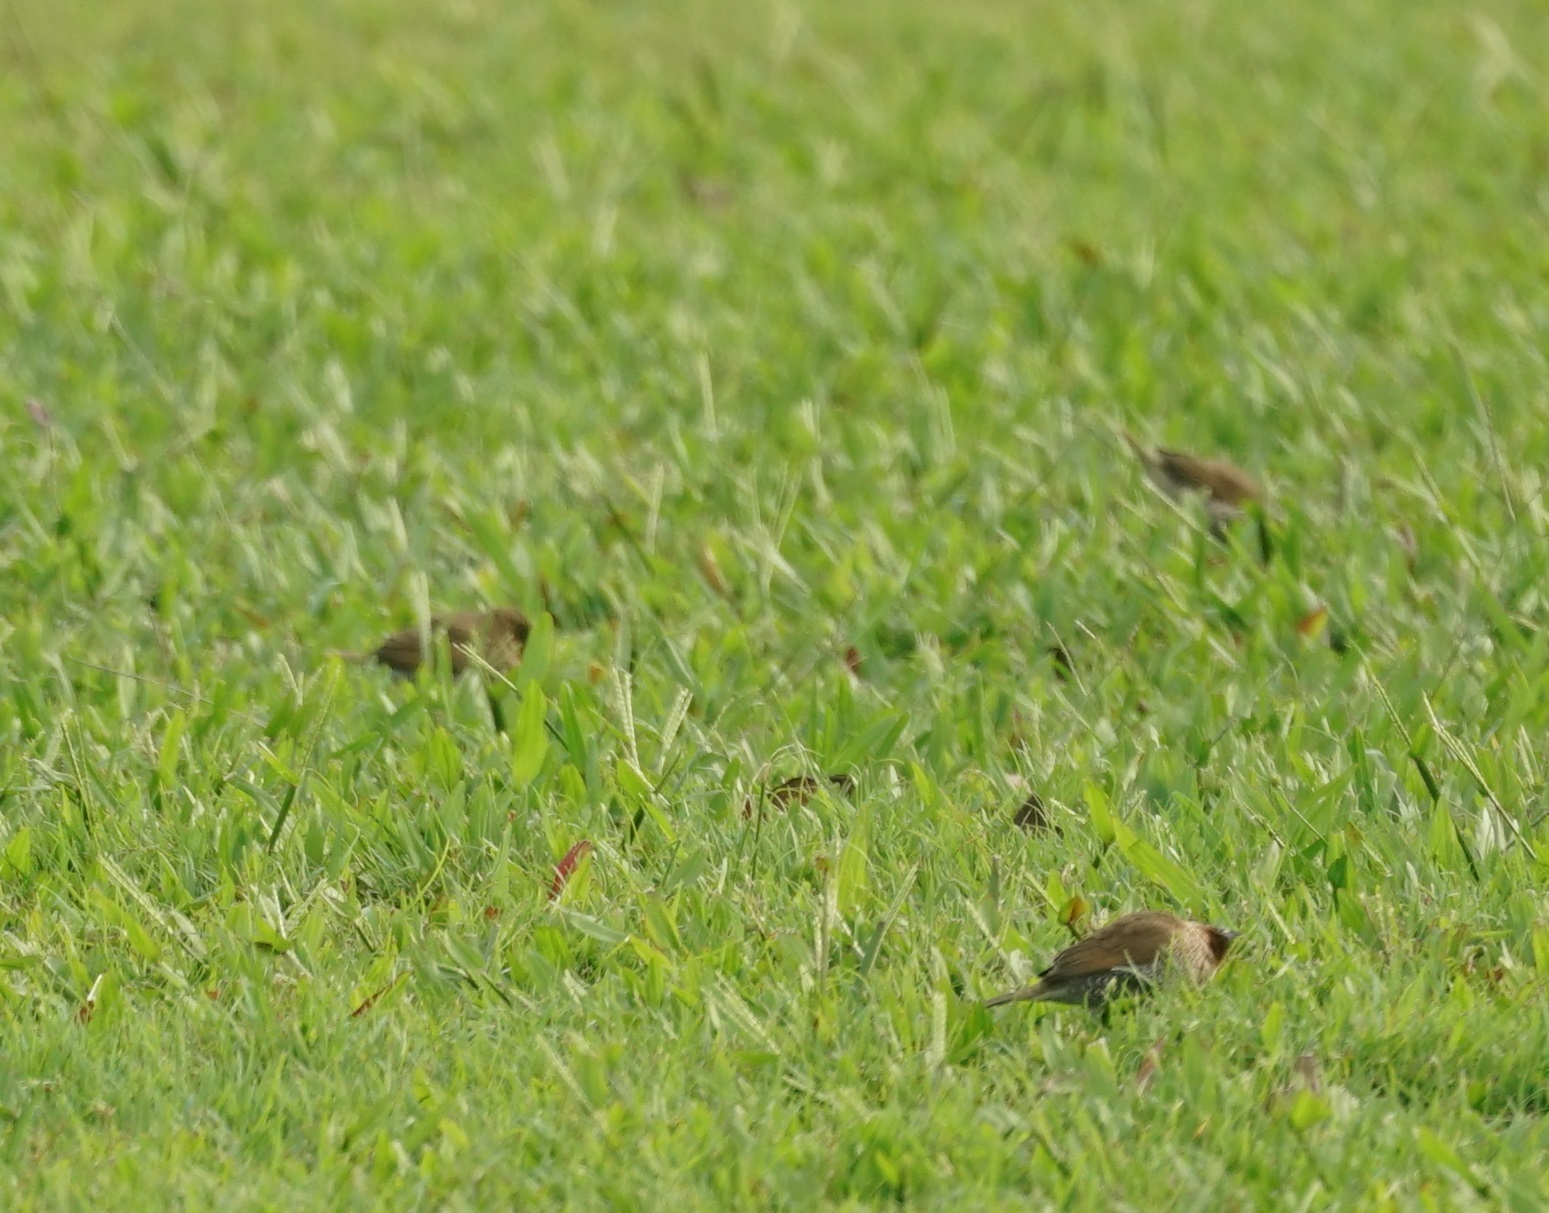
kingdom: Animalia
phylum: Chordata
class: Aves
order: Passeriformes
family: Estrildidae
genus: Lonchura
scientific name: Lonchura punctulata
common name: Scaly-breasted munia
